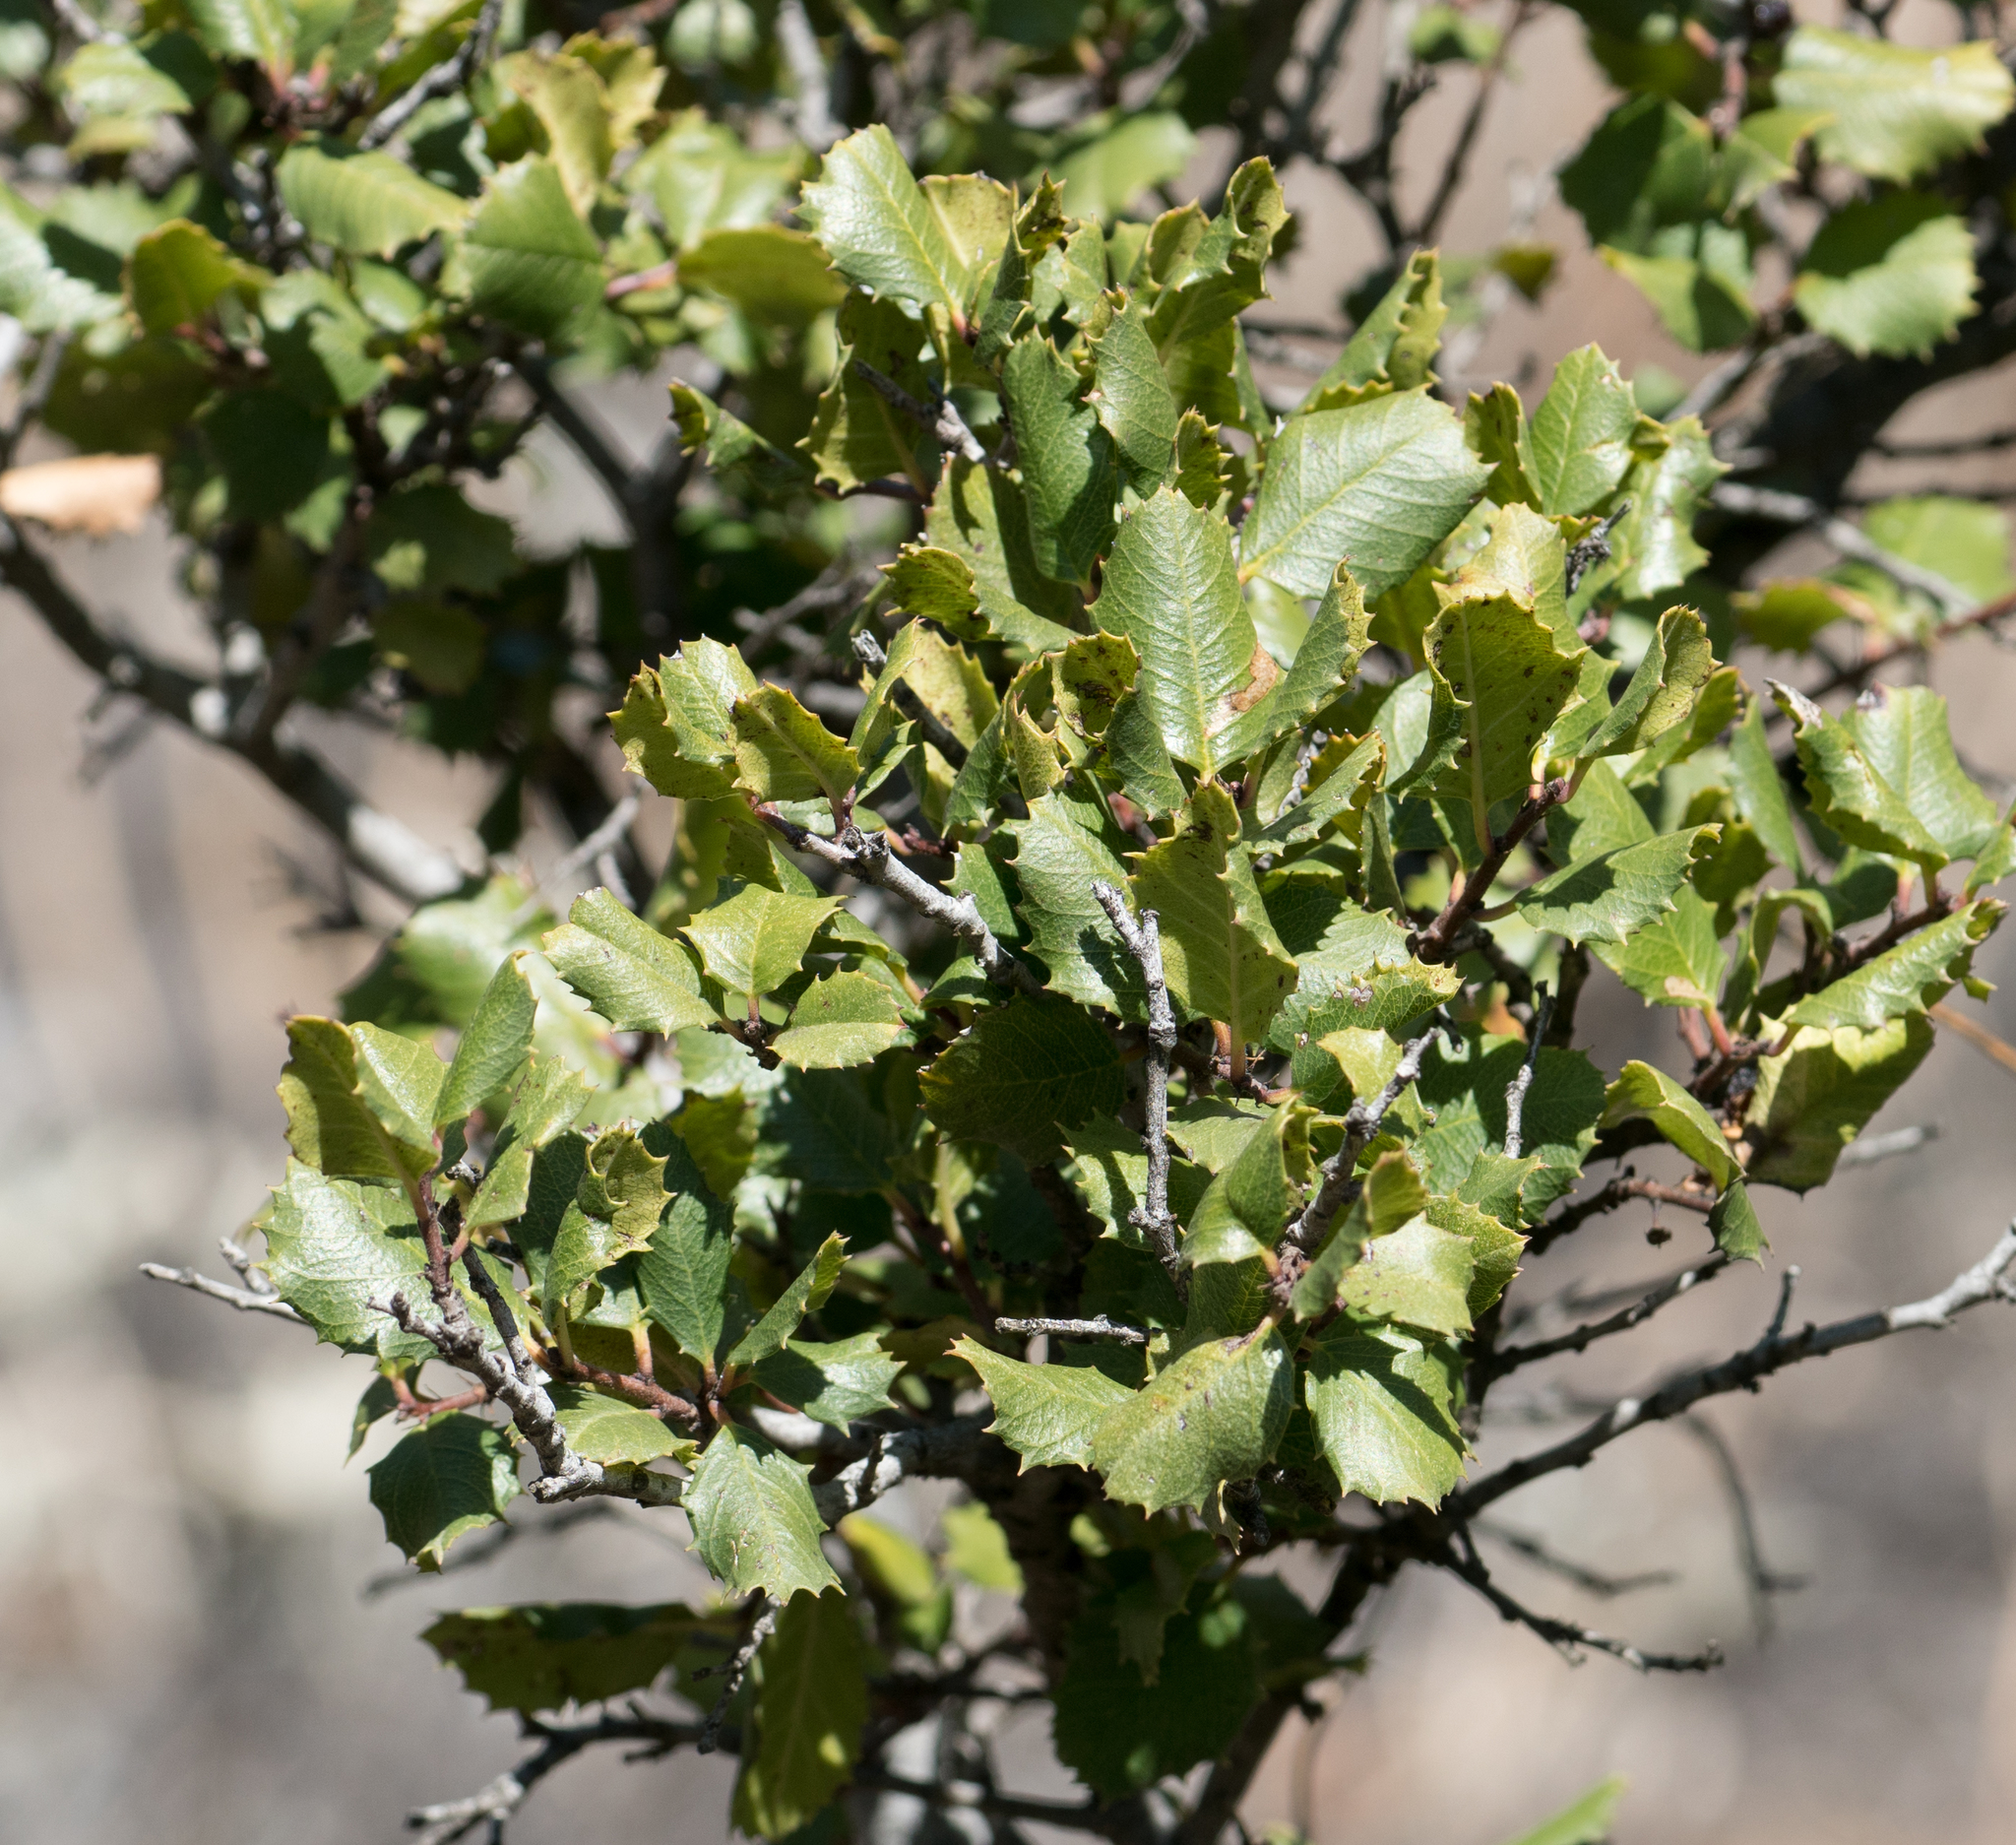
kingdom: Plantae
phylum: Tracheophyta
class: Magnoliopsida
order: Rosales
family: Rhamnaceae
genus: Endotropis
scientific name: Endotropis crocea
